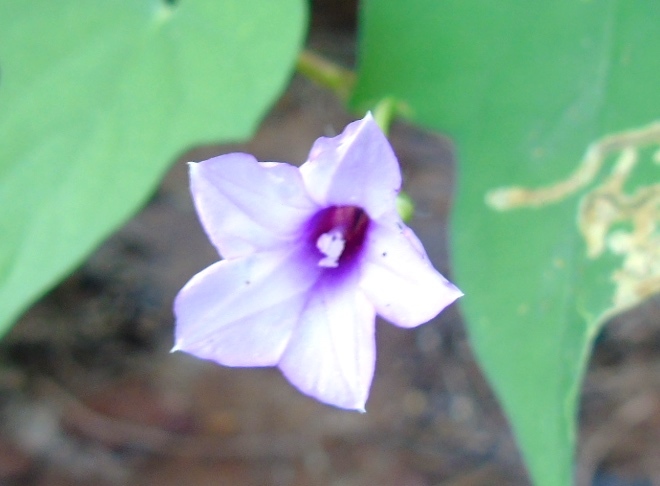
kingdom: Plantae
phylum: Tracheophyta
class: Magnoliopsida
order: Solanales
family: Convolvulaceae
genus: Ipomoea
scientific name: Ipomoea triloba
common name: Little-bell
